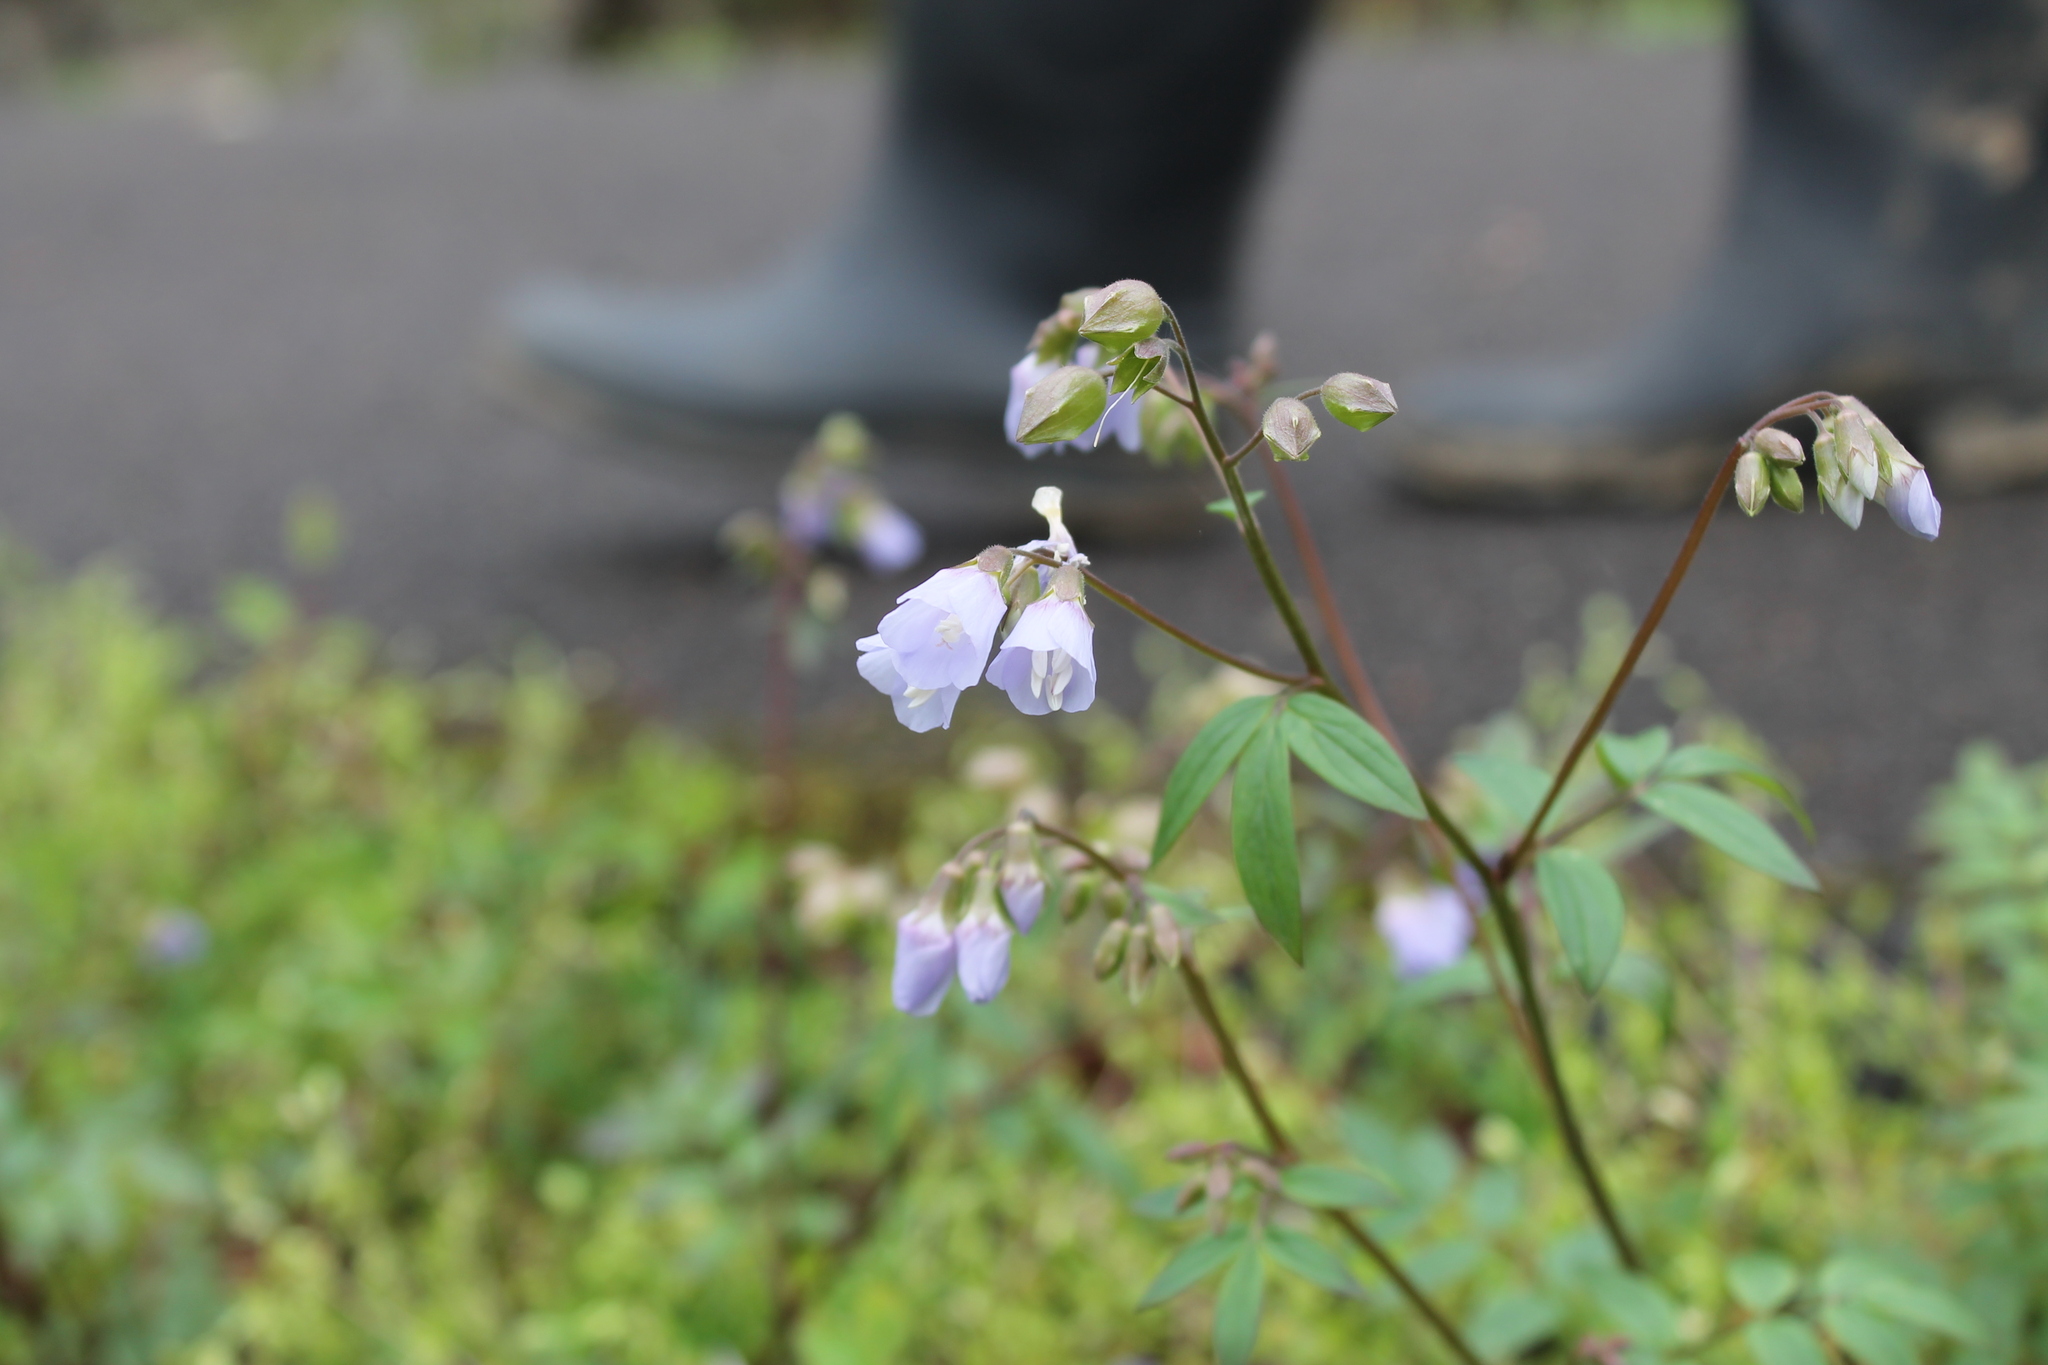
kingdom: Plantae
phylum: Tracheophyta
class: Magnoliopsida
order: Ericales
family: Polemoniaceae
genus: Polemonium
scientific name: Polemonium reptans
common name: Creeping jacob's-ladder
